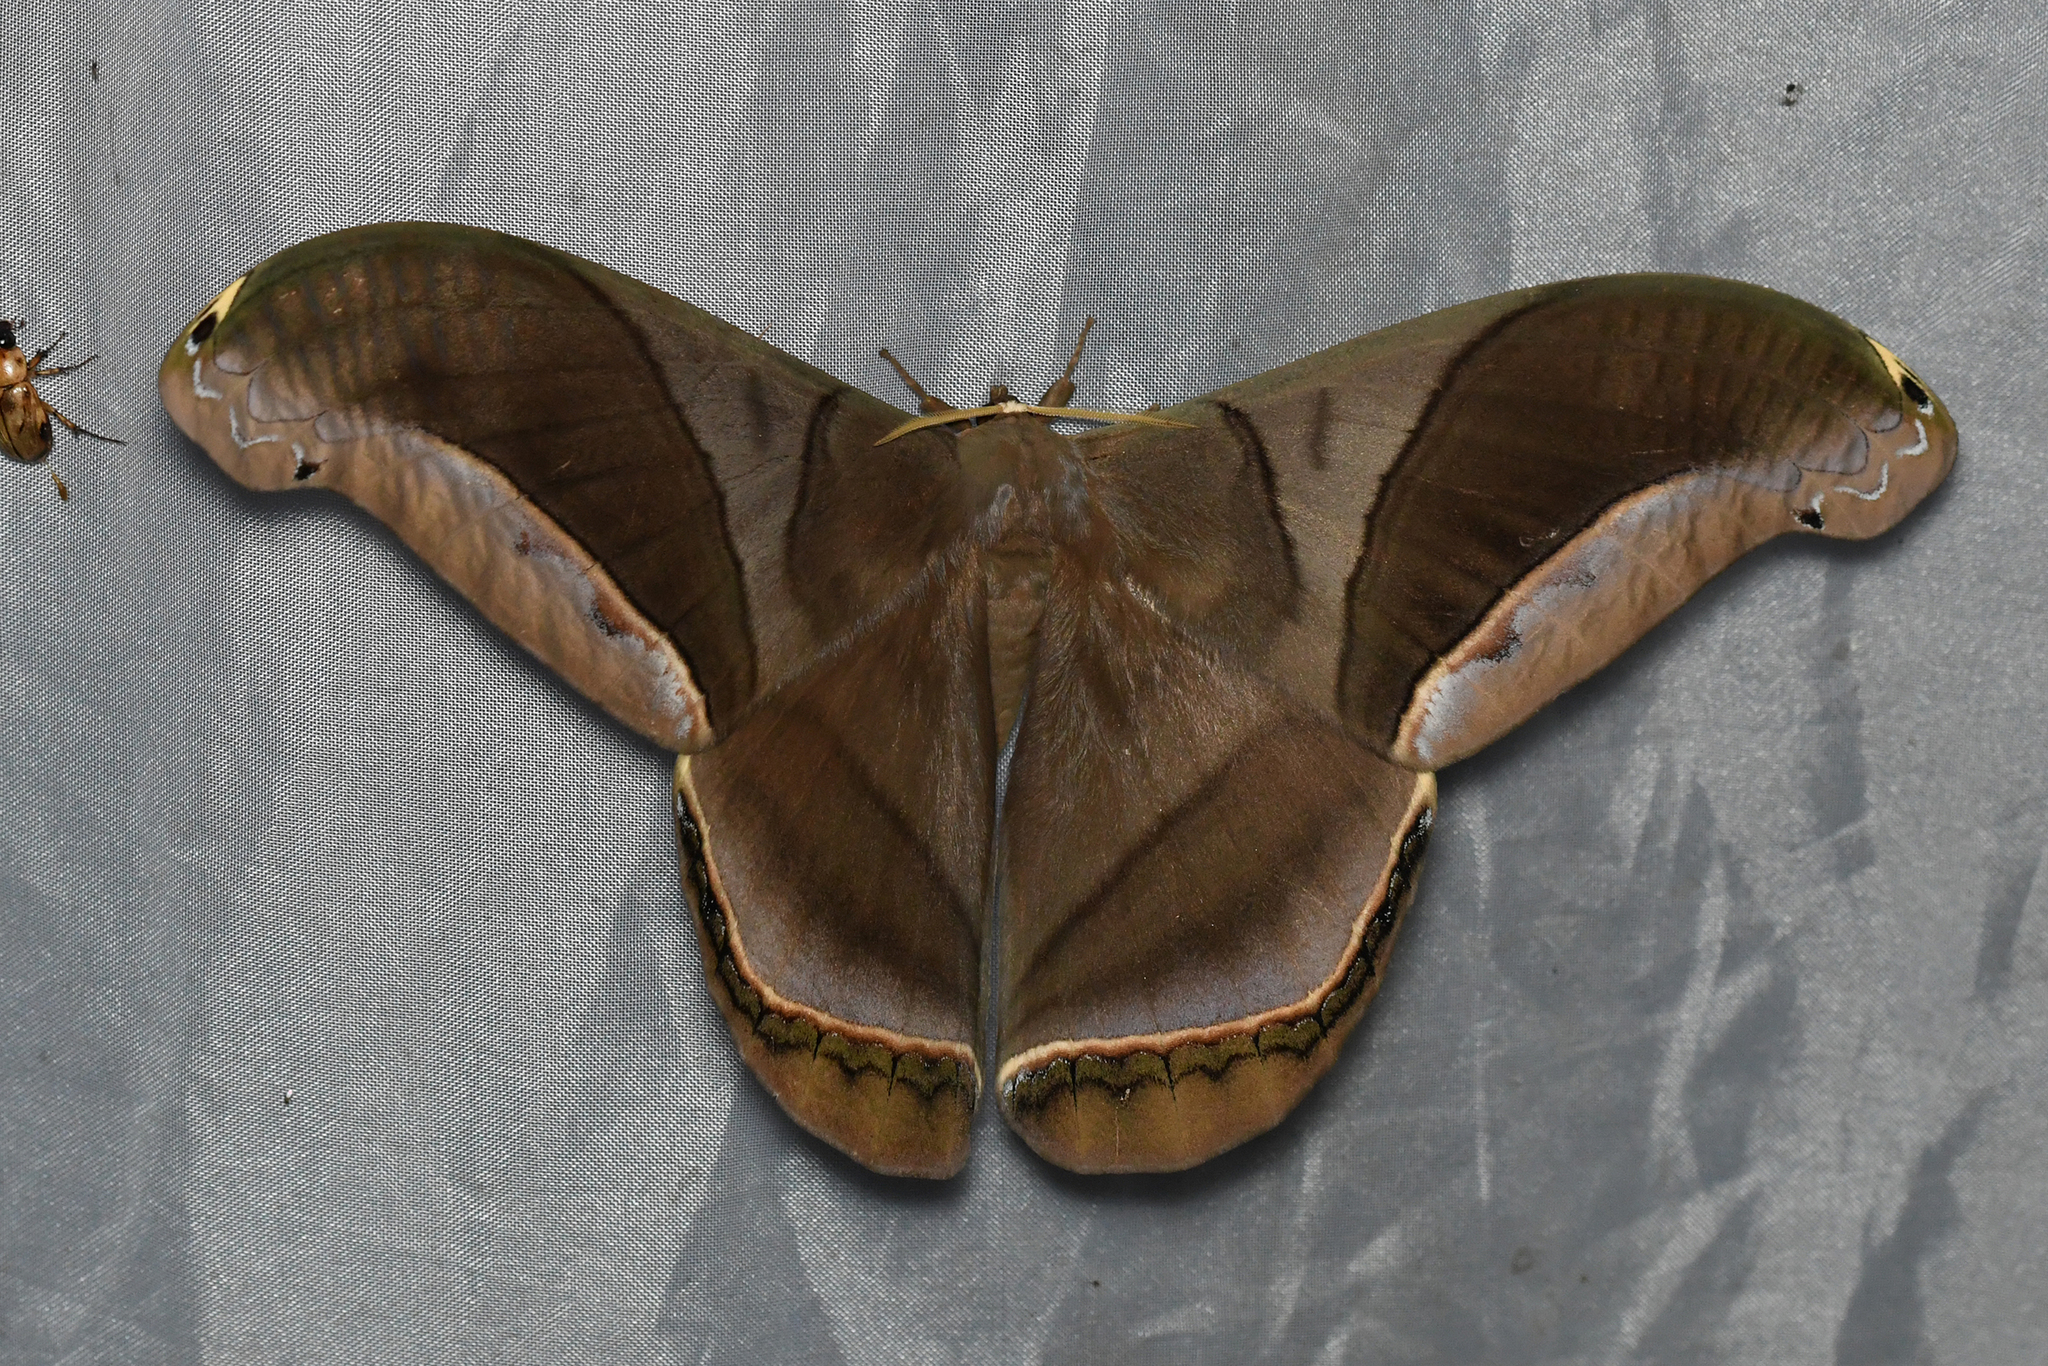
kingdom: Animalia
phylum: Arthropoda
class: Insecta
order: Lepidoptera
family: Saturniidae
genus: Rhescyntis
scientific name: Rhescyntis hippodamia
